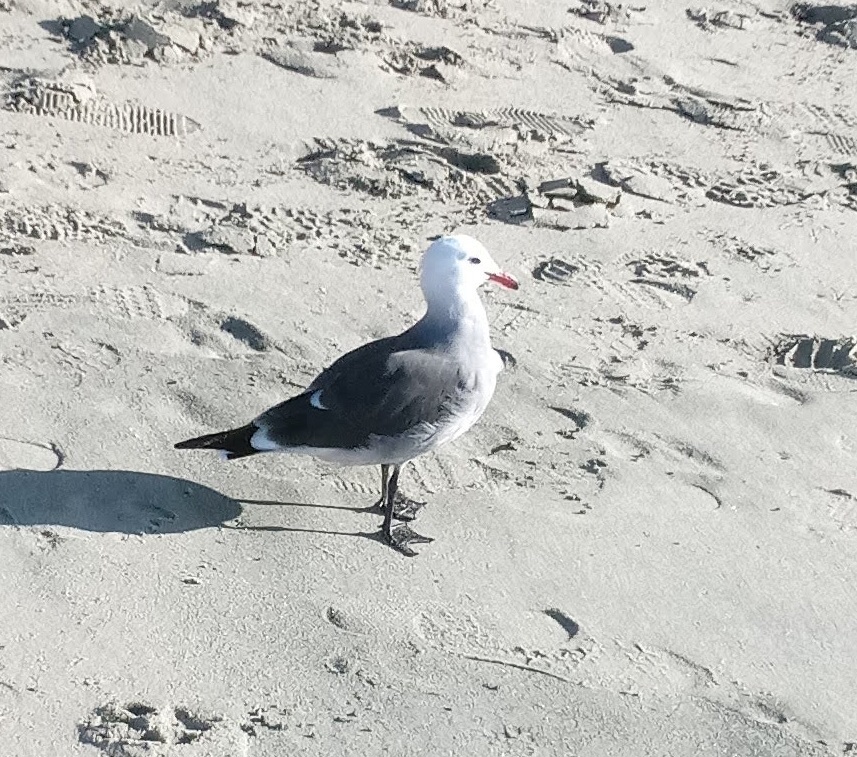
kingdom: Animalia
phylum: Chordata
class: Aves
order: Charadriiformes
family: Laridae
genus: Larus
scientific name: Larus heermanni
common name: Heermann's gull
